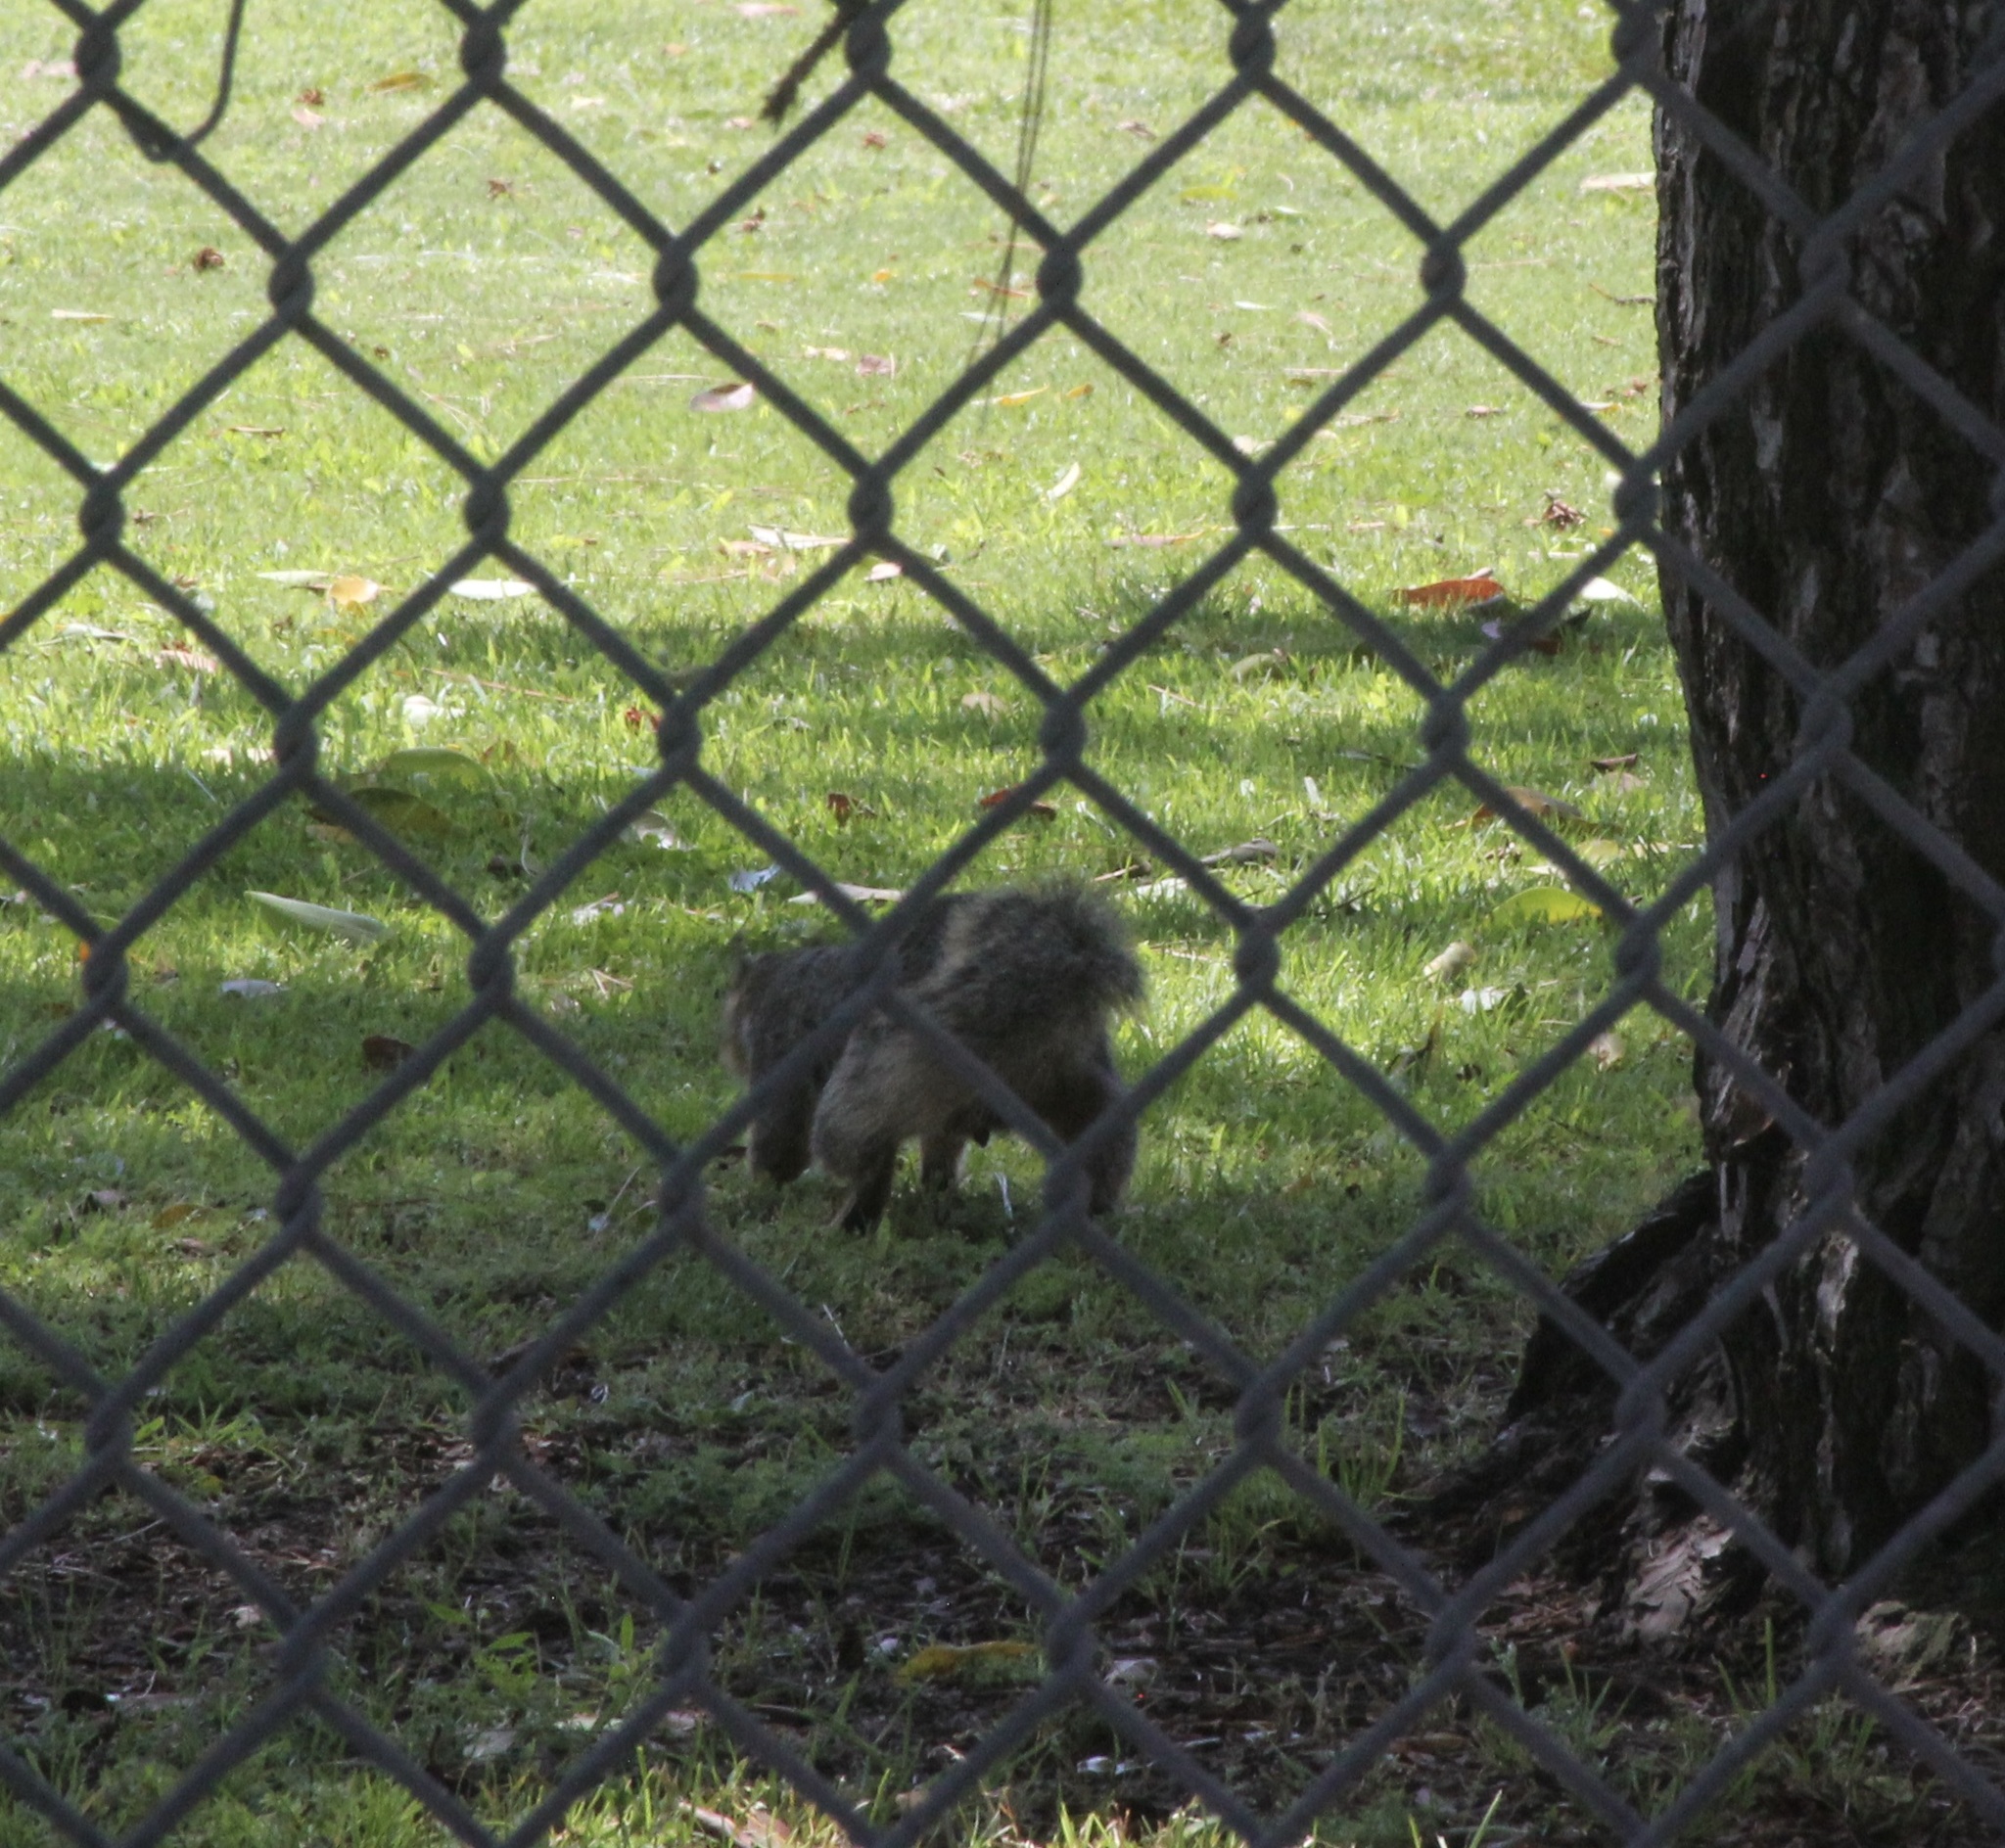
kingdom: Animalia
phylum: Chordata
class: Mammalia
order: Rodentia
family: Sciuridae
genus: Sciurus
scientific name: Sciurus niger
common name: Fox squirrel
